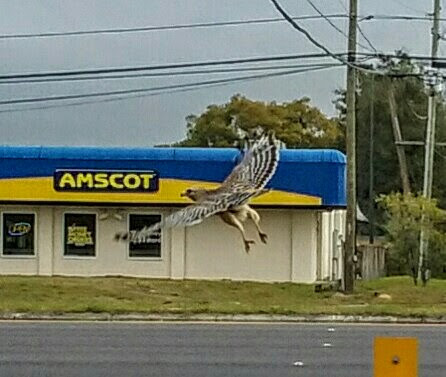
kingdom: Animalia
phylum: Chordata
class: Aves
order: Accipitriformes
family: Accipitridae
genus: Buteo
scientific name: Buteo lineatus
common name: Red-shouldered hawk
